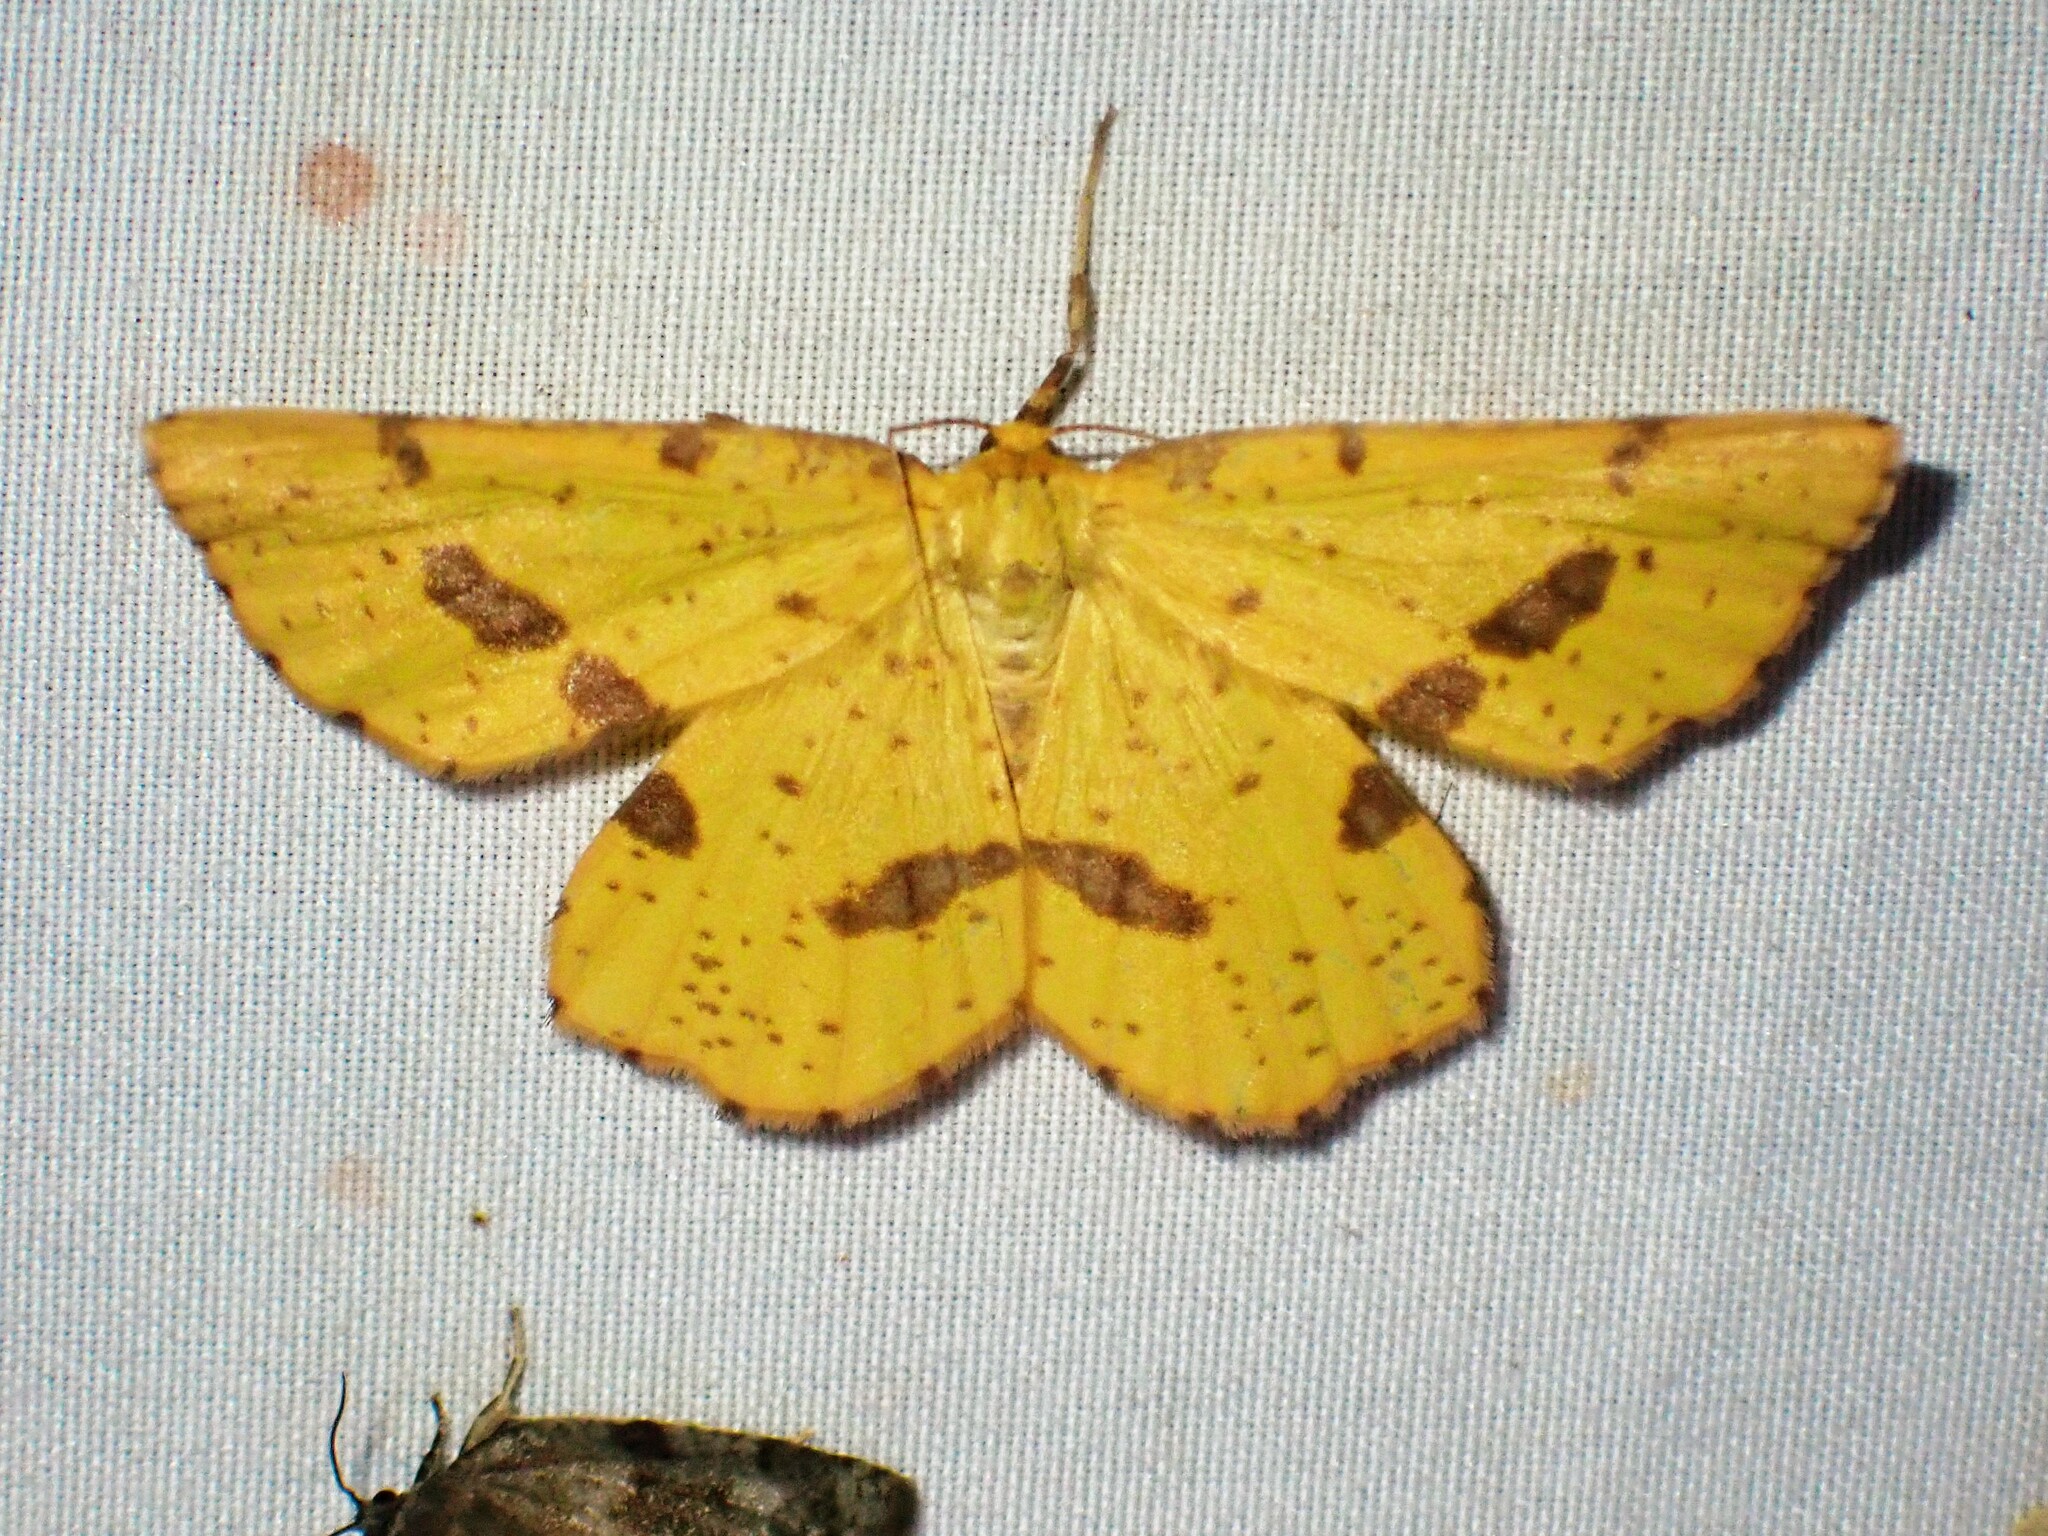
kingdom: Animalia
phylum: Arthropoda
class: Insecta
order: Lepidoptera
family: Geometridae
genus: Xanthotype
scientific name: Xanthotype
